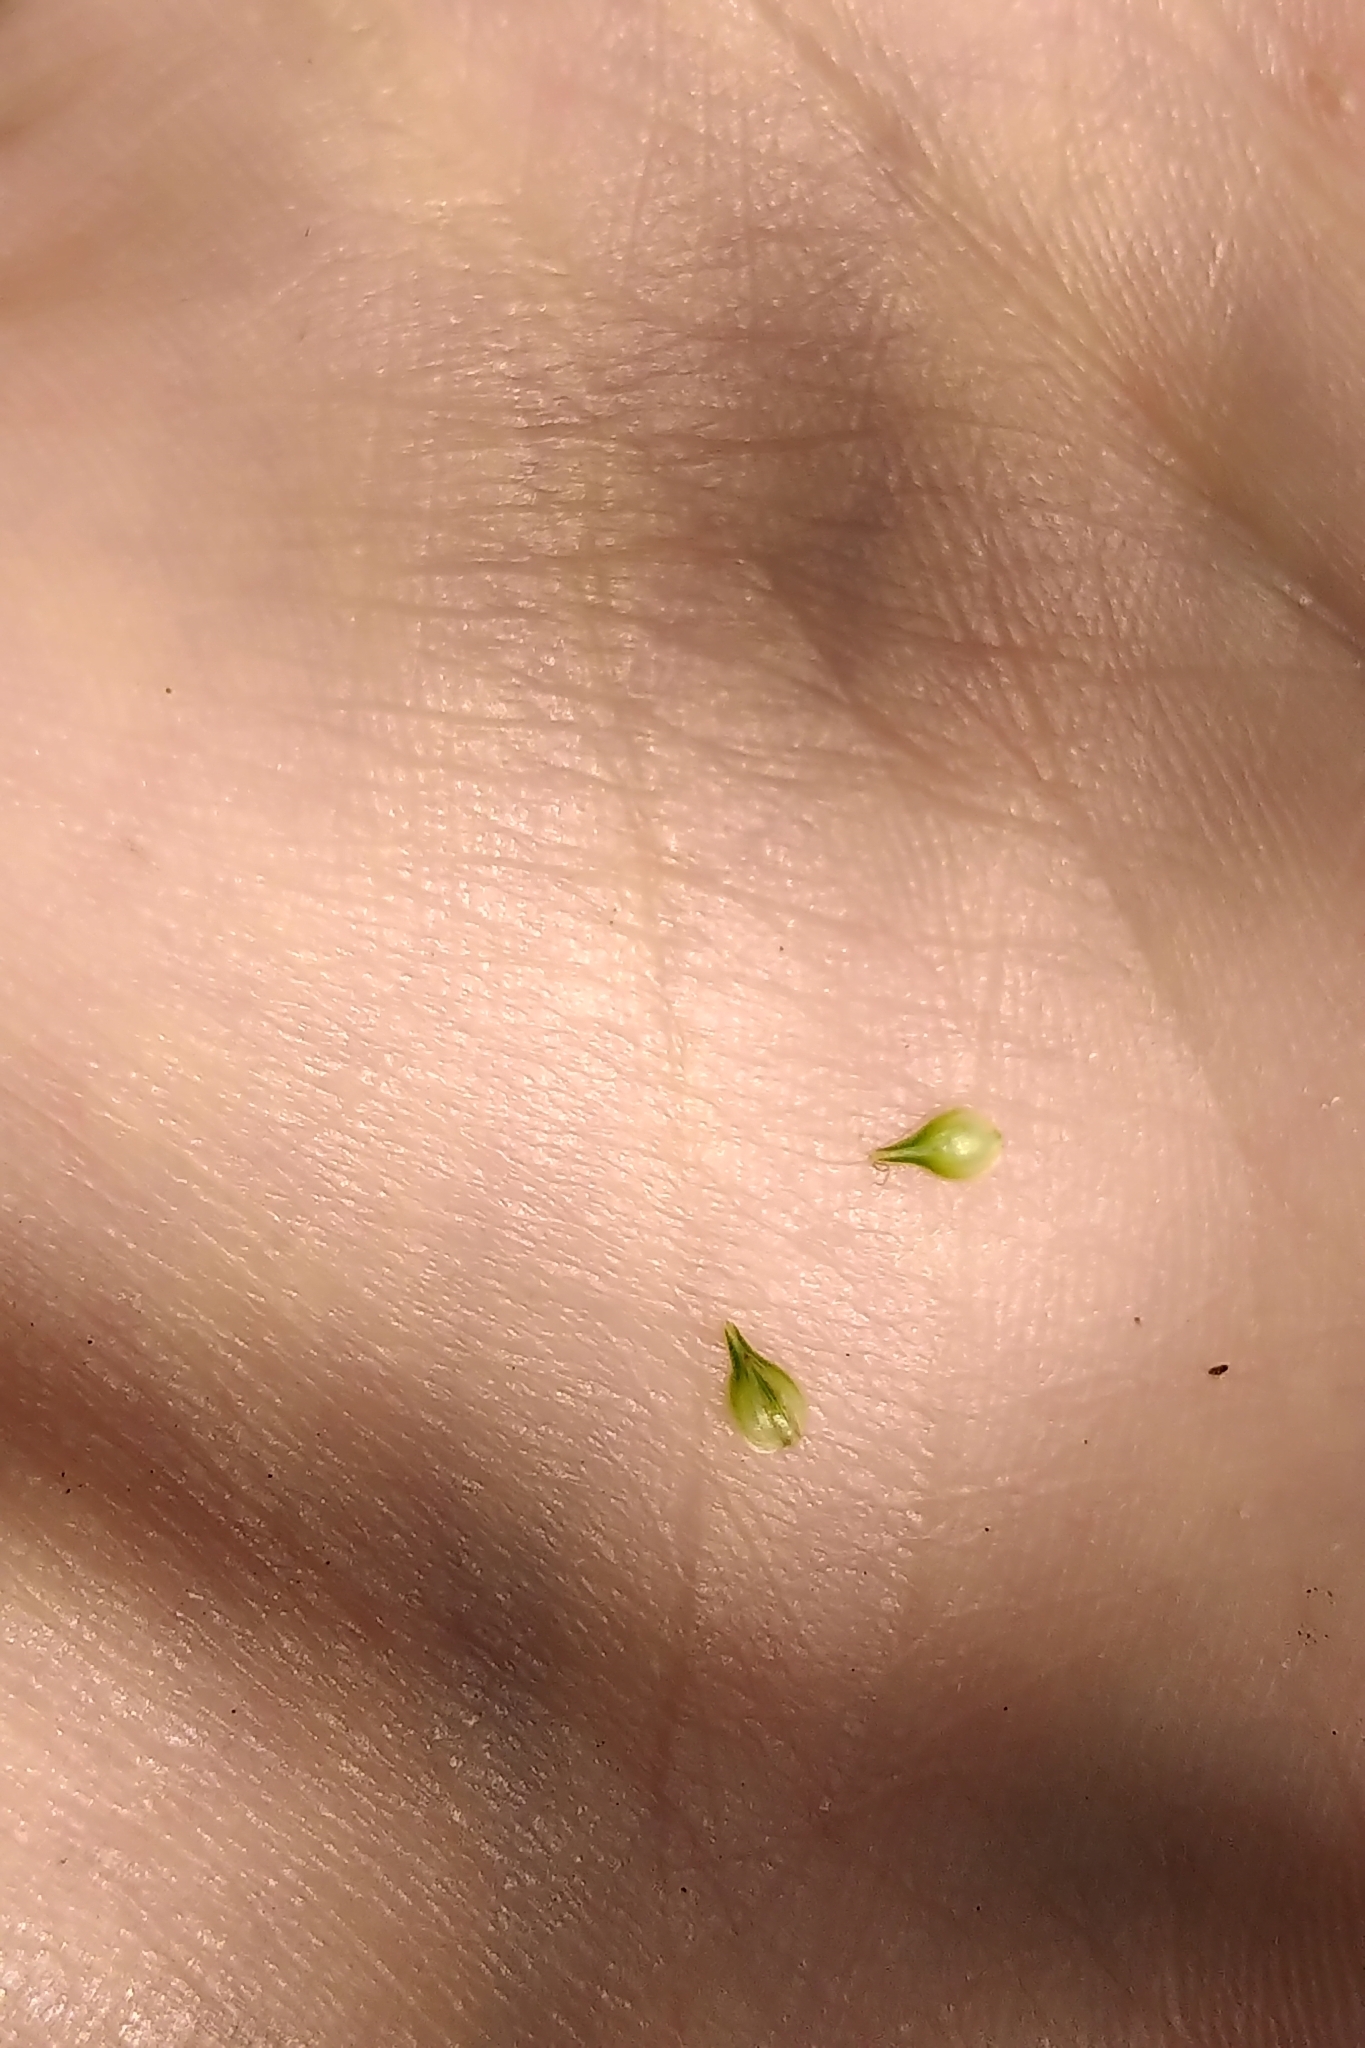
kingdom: Plantae
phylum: Tracheophyta
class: Liliopsida
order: Poales
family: Cyperaceae
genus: Carex
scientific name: Carex molesta
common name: Troublesome sedge
